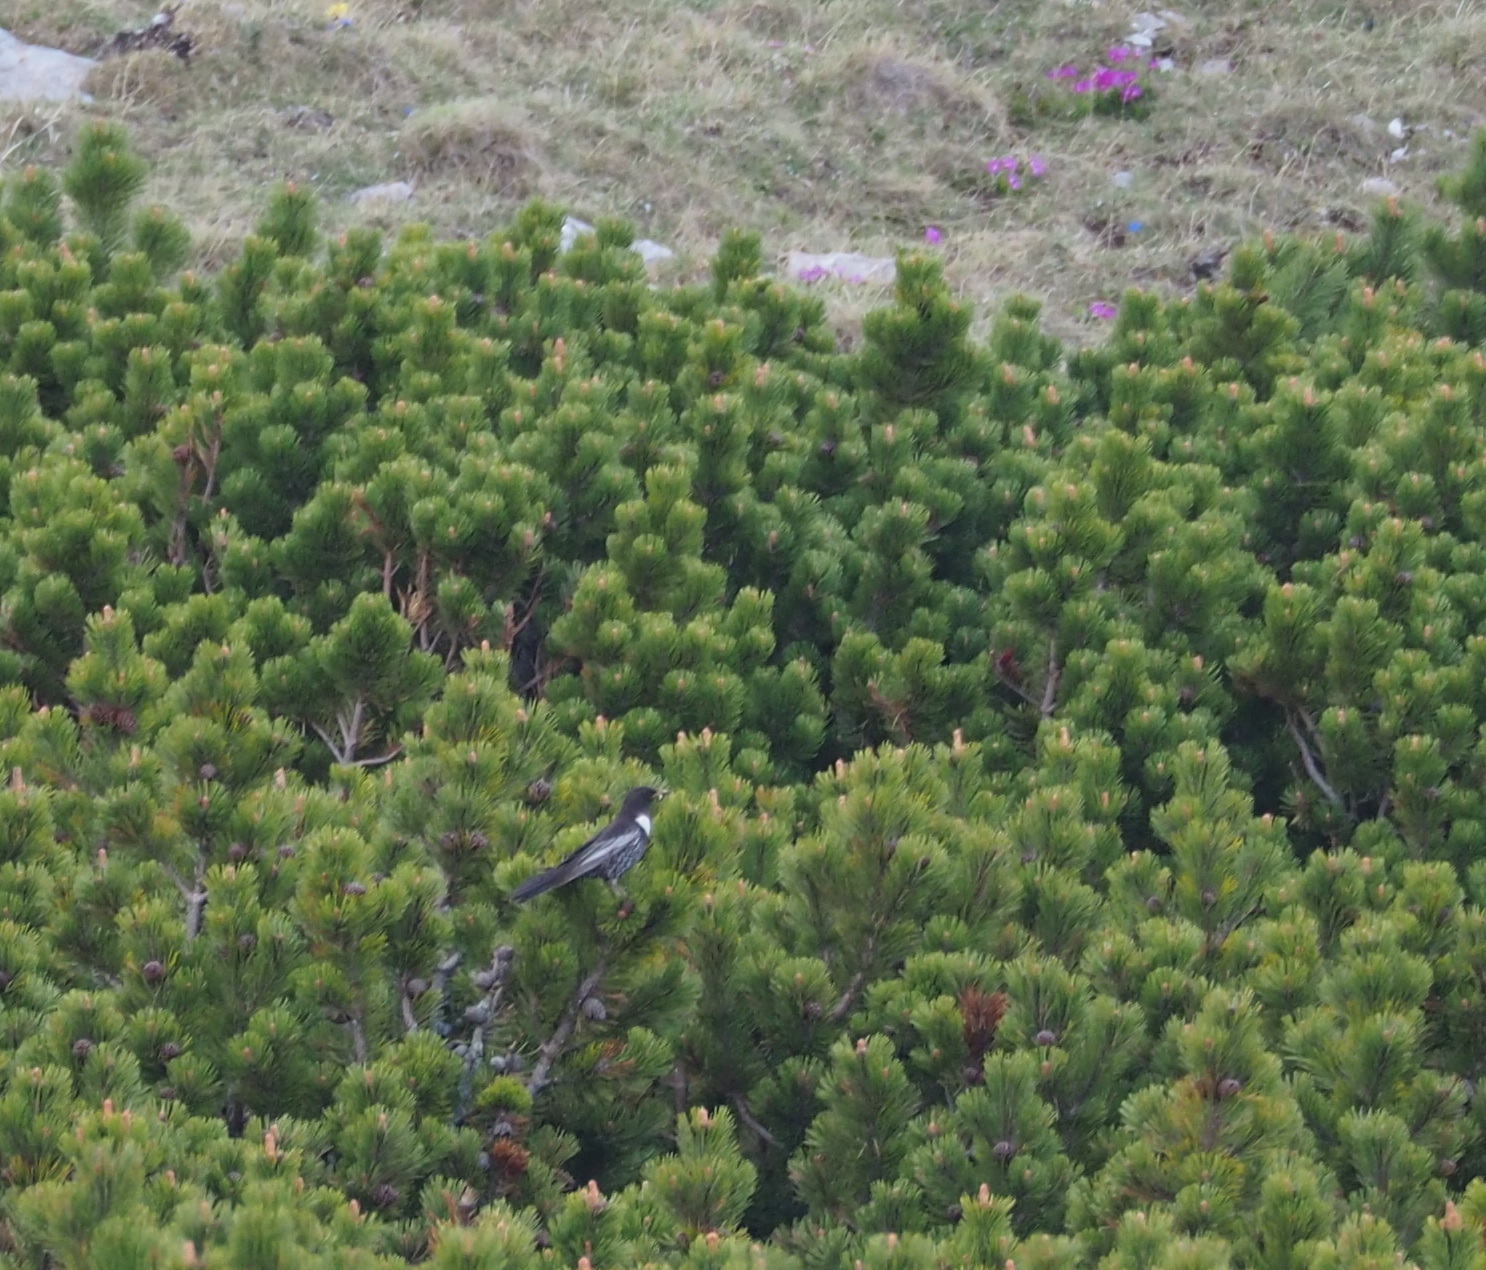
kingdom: Animalia
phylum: Chordata
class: Aves
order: Passeriformes
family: Turdidae
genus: Turdus
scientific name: Turdus torquatus
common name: Ring ouzel
